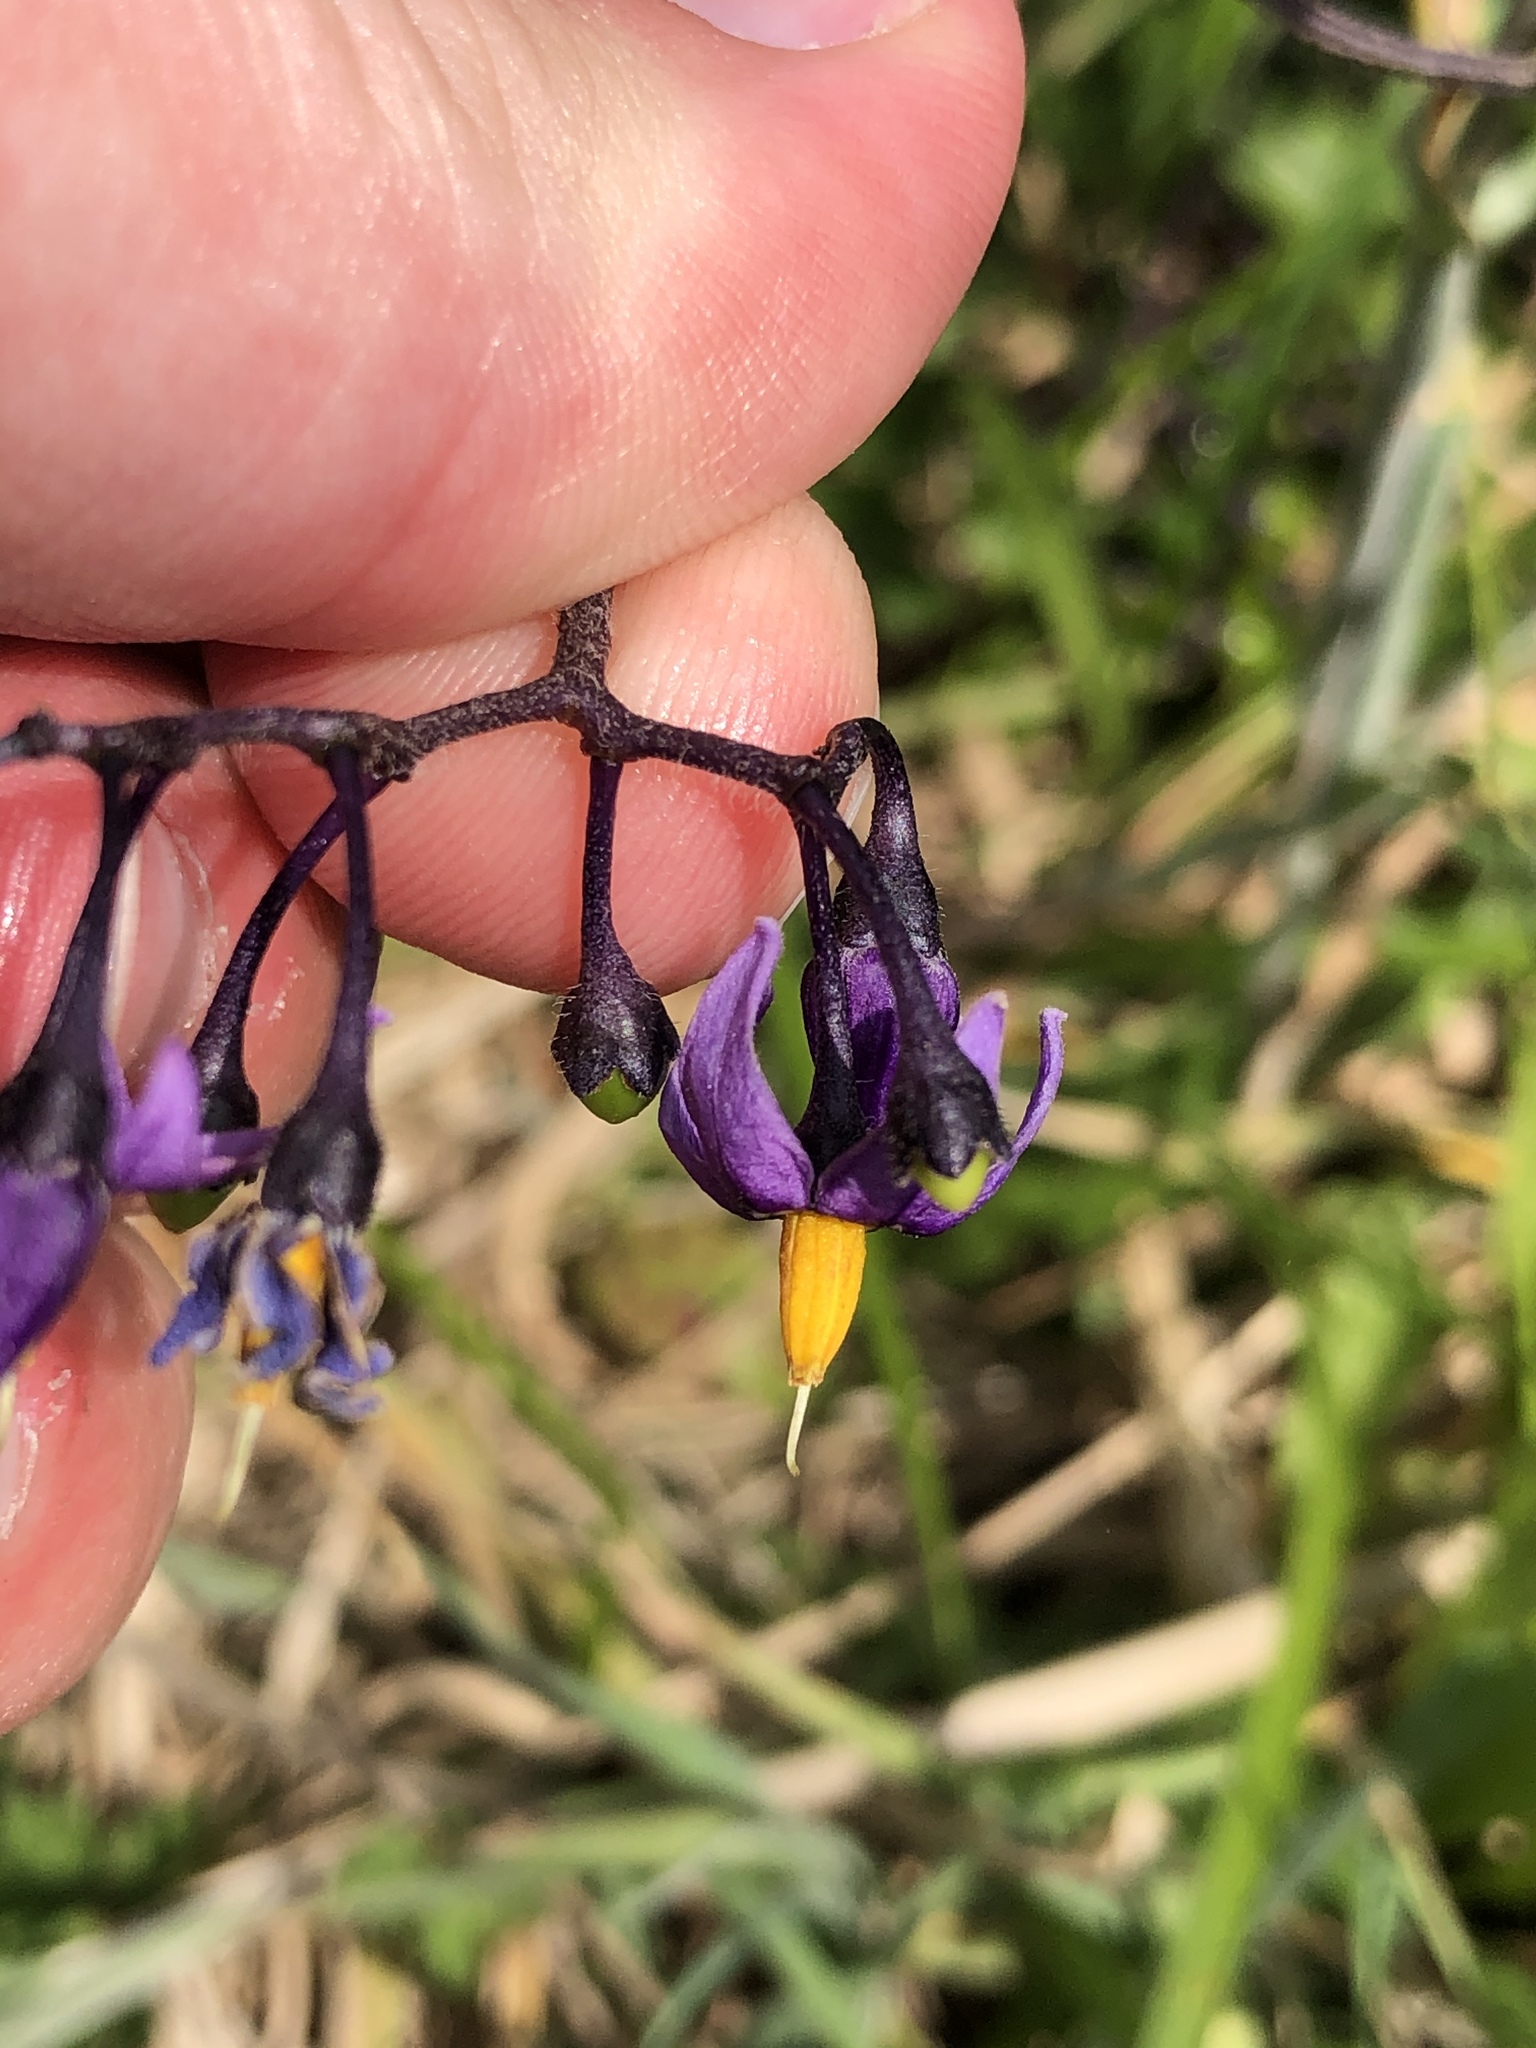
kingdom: Plantae
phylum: Tracheophyta
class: Magnoliopsida
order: Solanales
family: Solanaceae
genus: Solanum
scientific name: Solanum dulcamara
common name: Climbing nightshade
